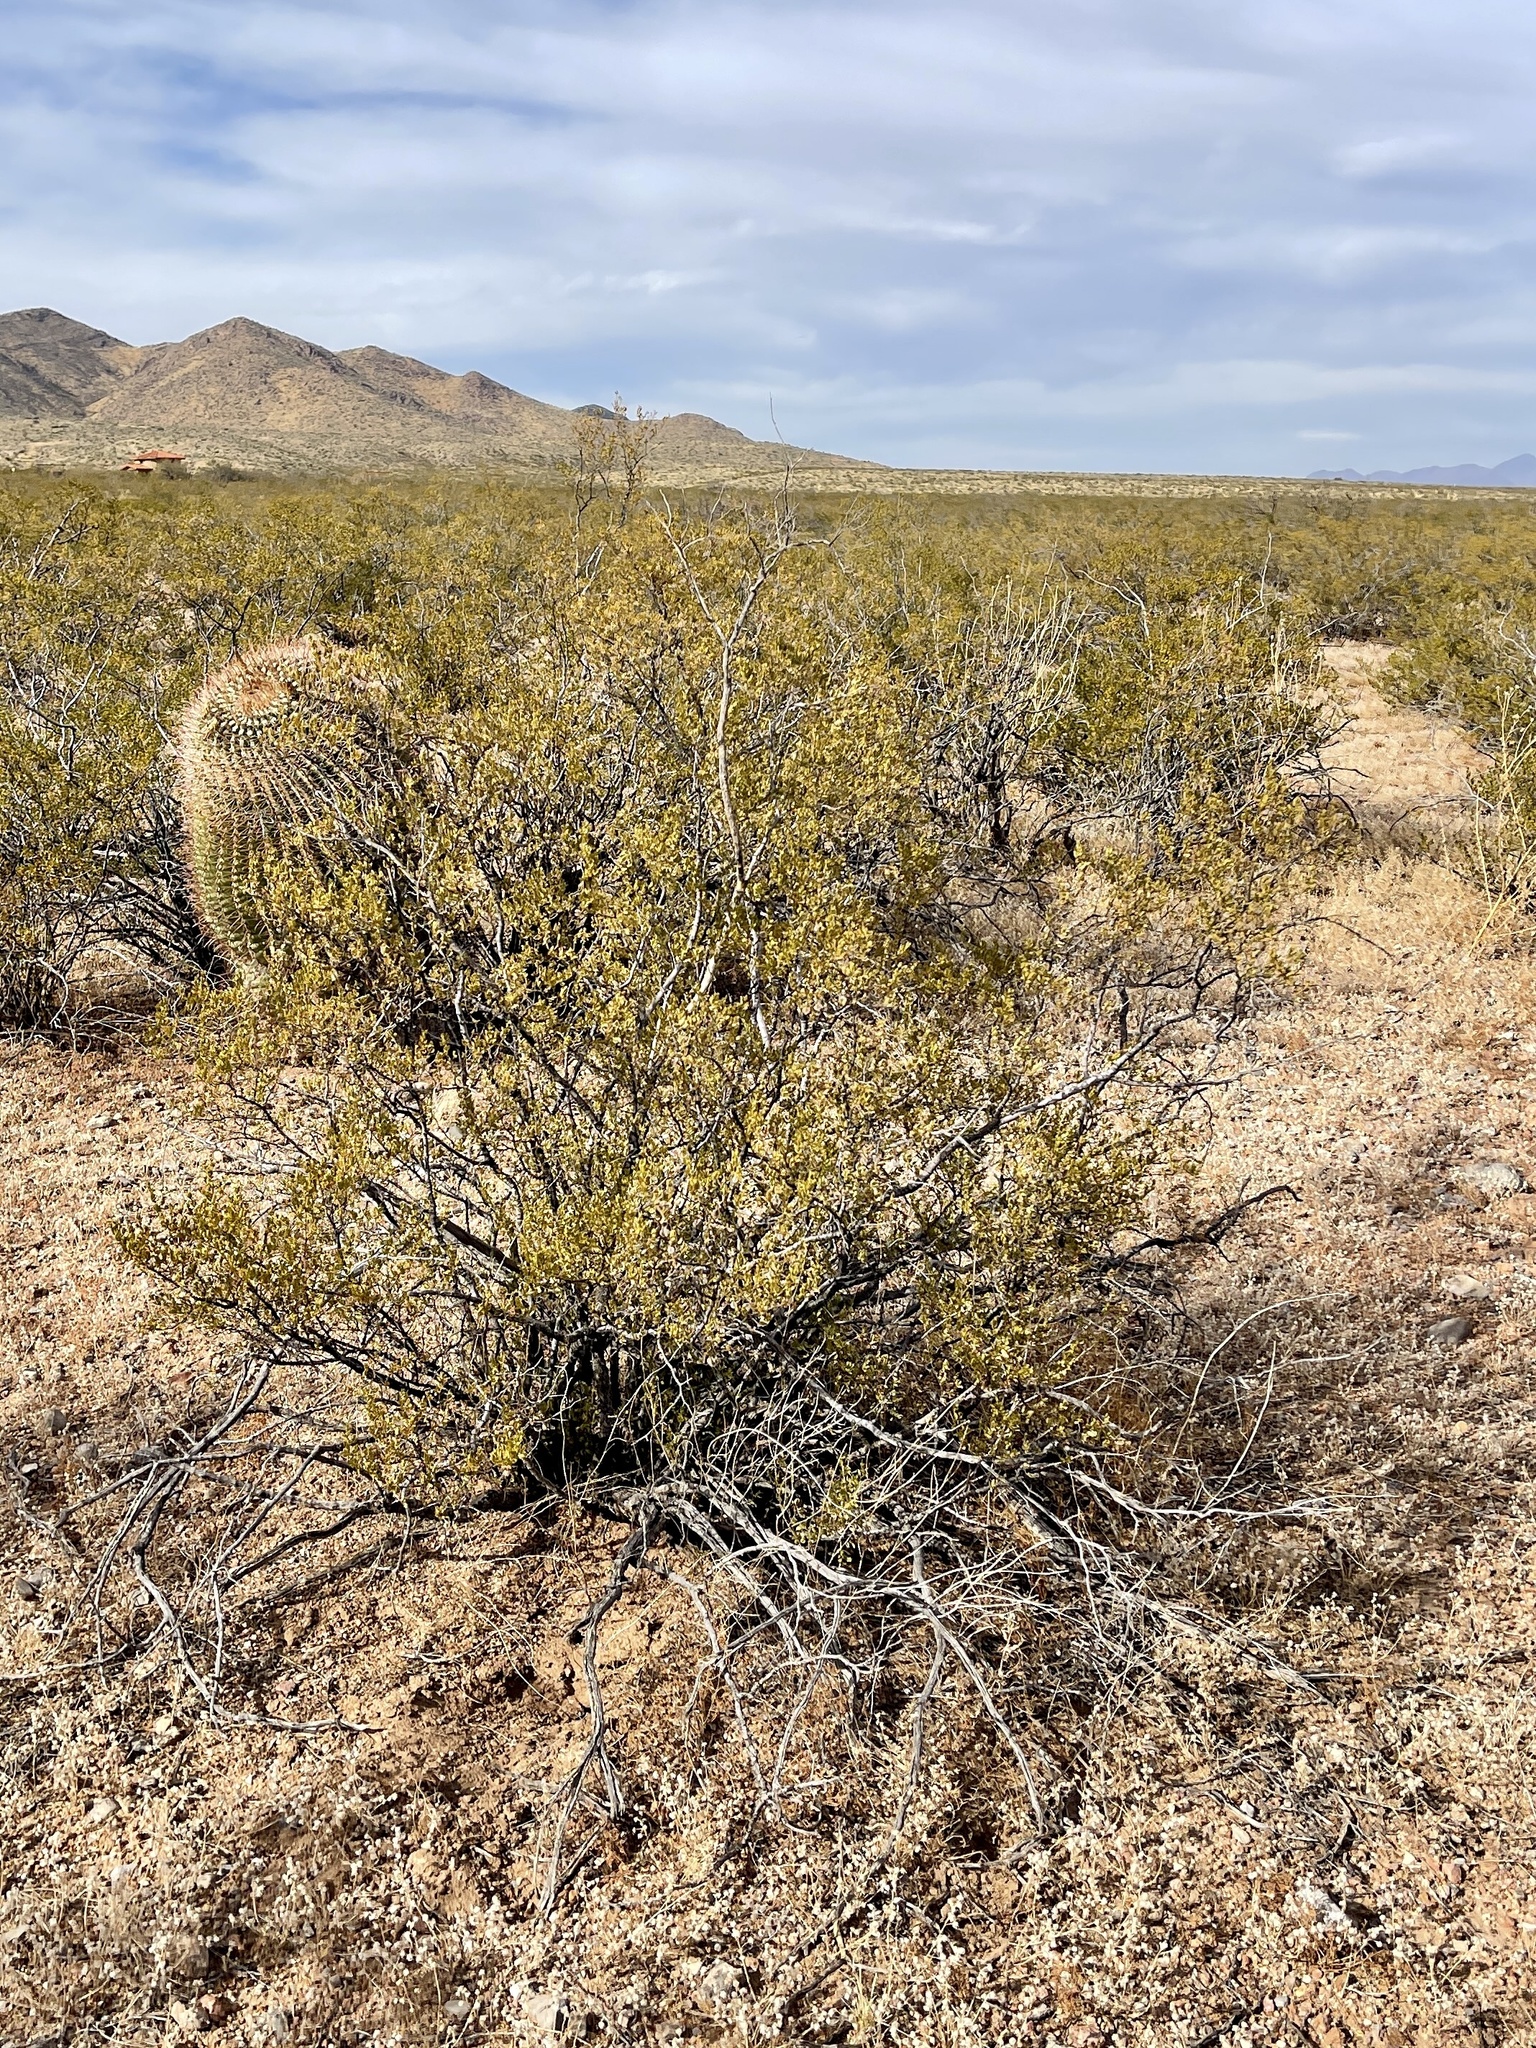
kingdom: Plantae
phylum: Tracheophyta
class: Magnoliopsida
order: Zygophyllales
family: Zygophyllaceae
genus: Larrea
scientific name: Larrea tridentata
